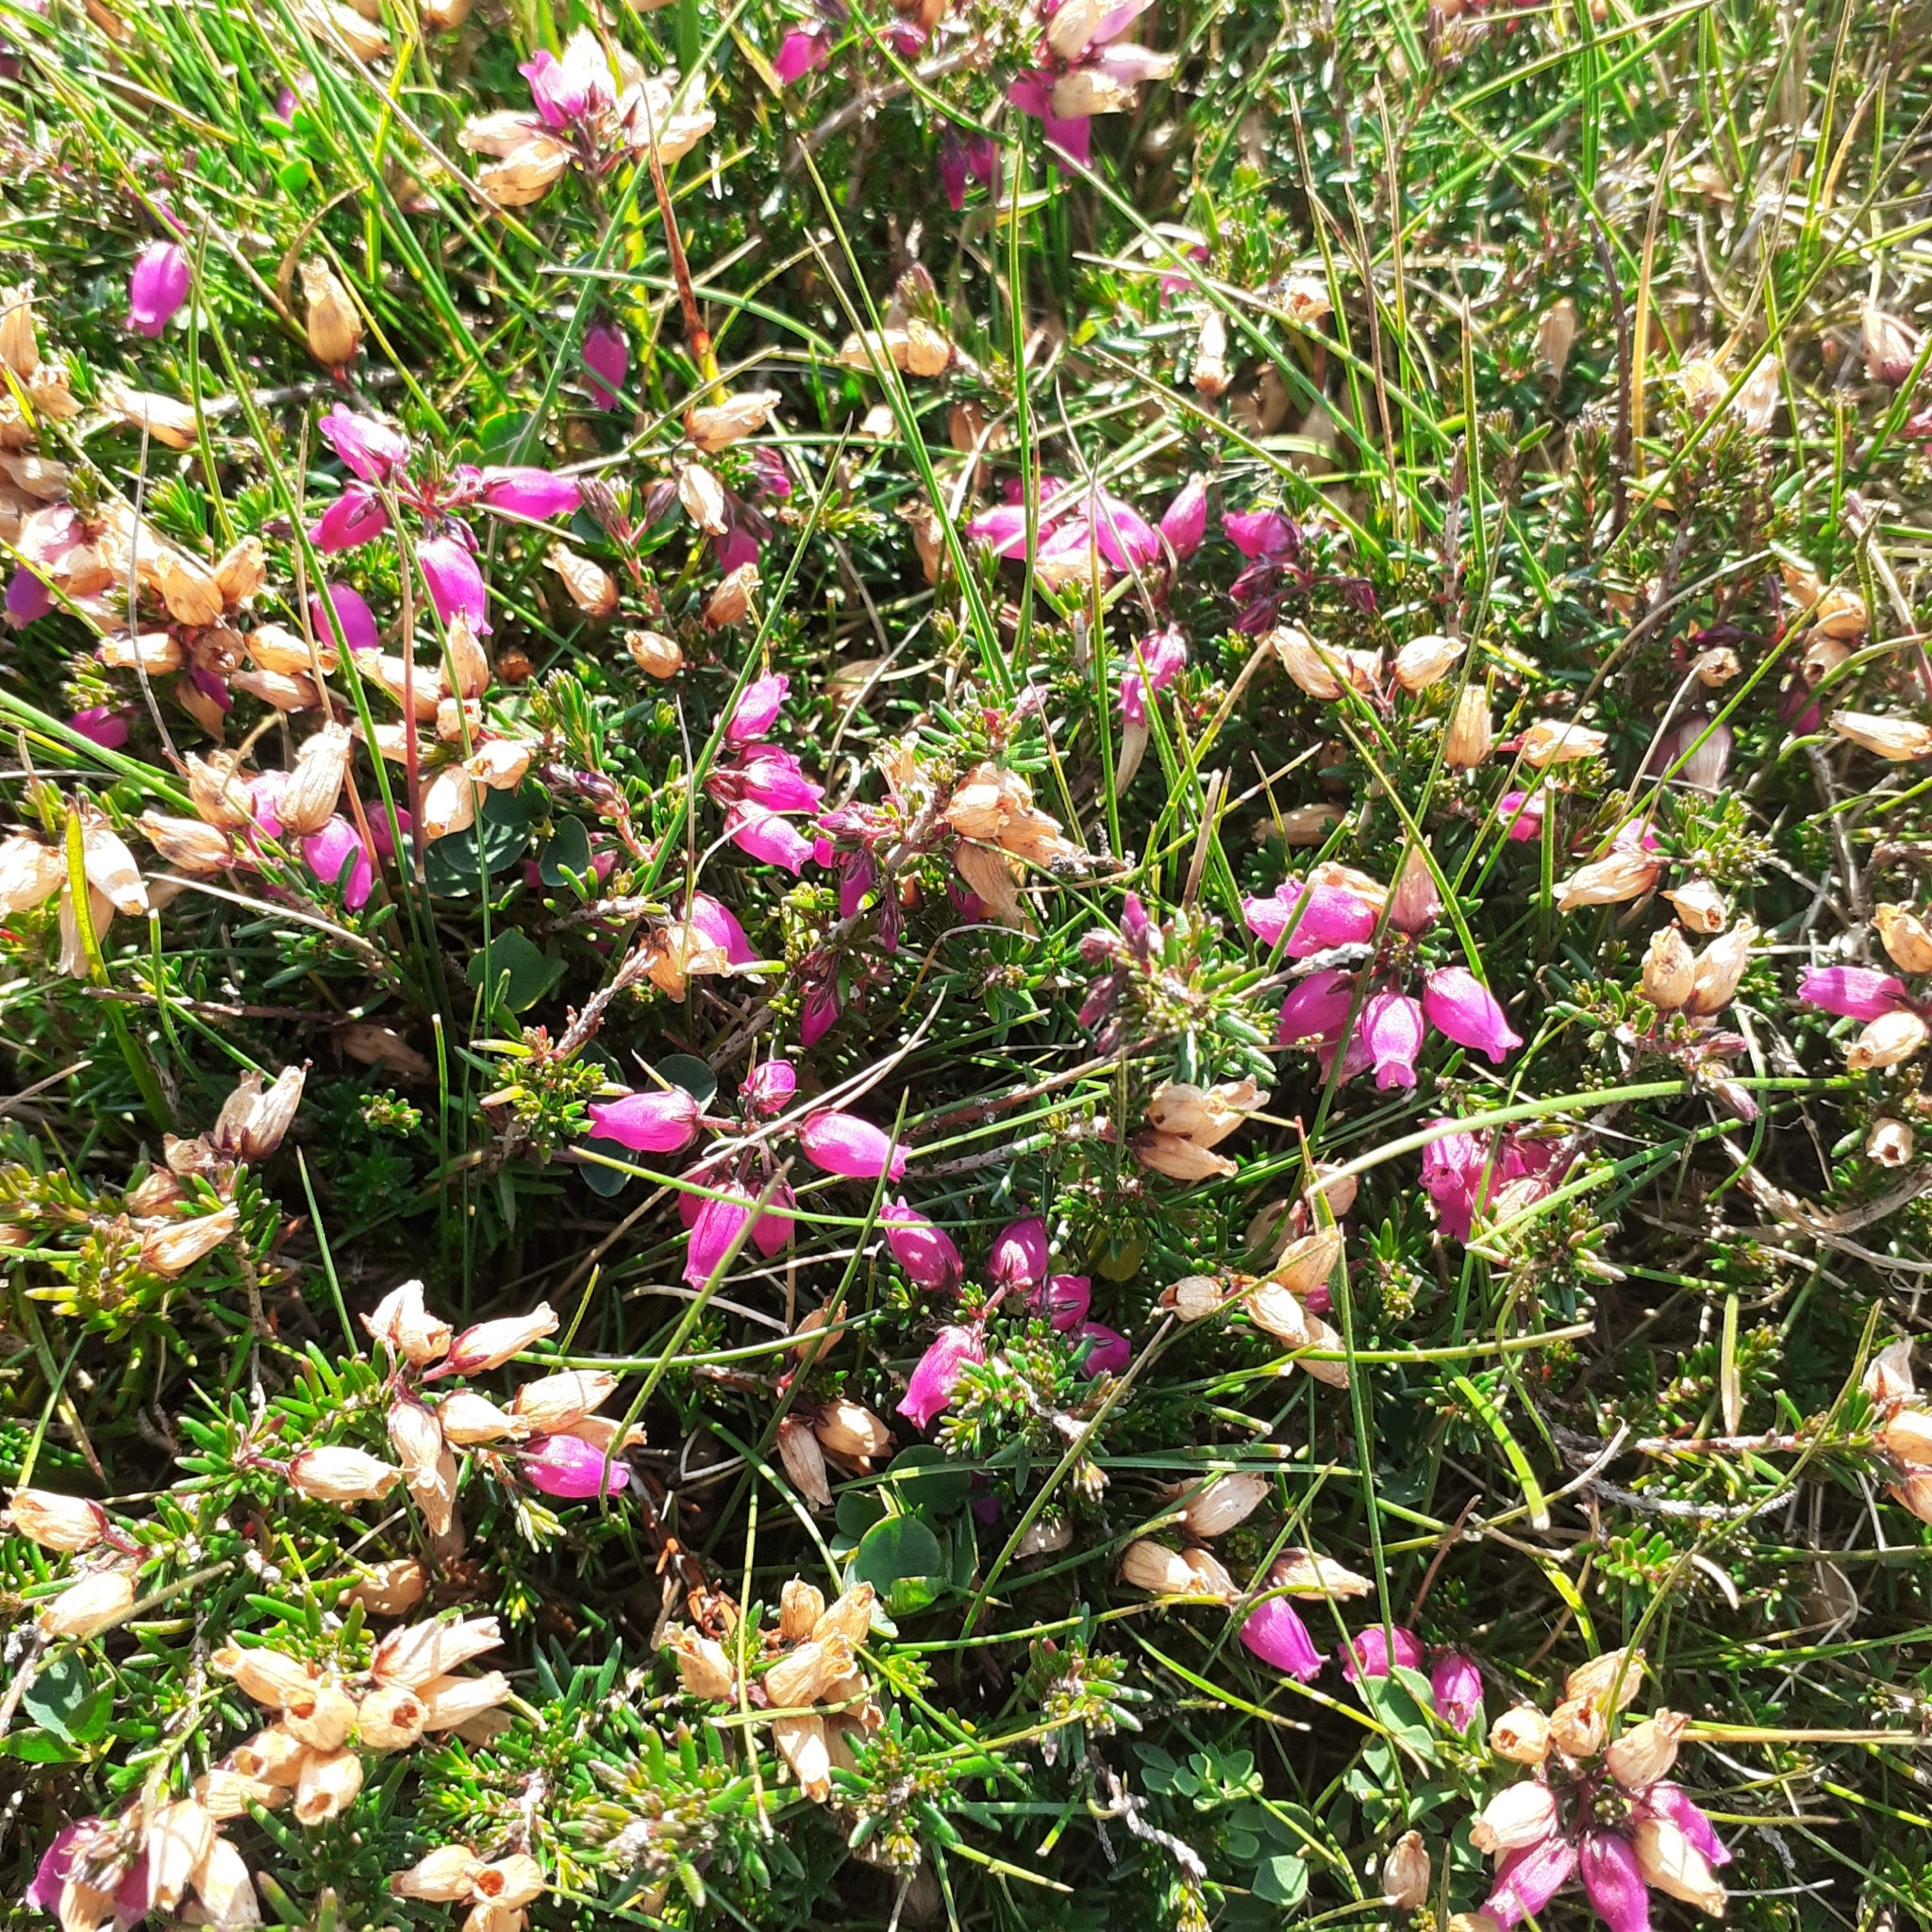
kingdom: Plantae
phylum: Tracheophyta
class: Magnoliopsida
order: Ericales
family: Ericaceae
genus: Erica
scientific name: Erica cinerea
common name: Bell heather
